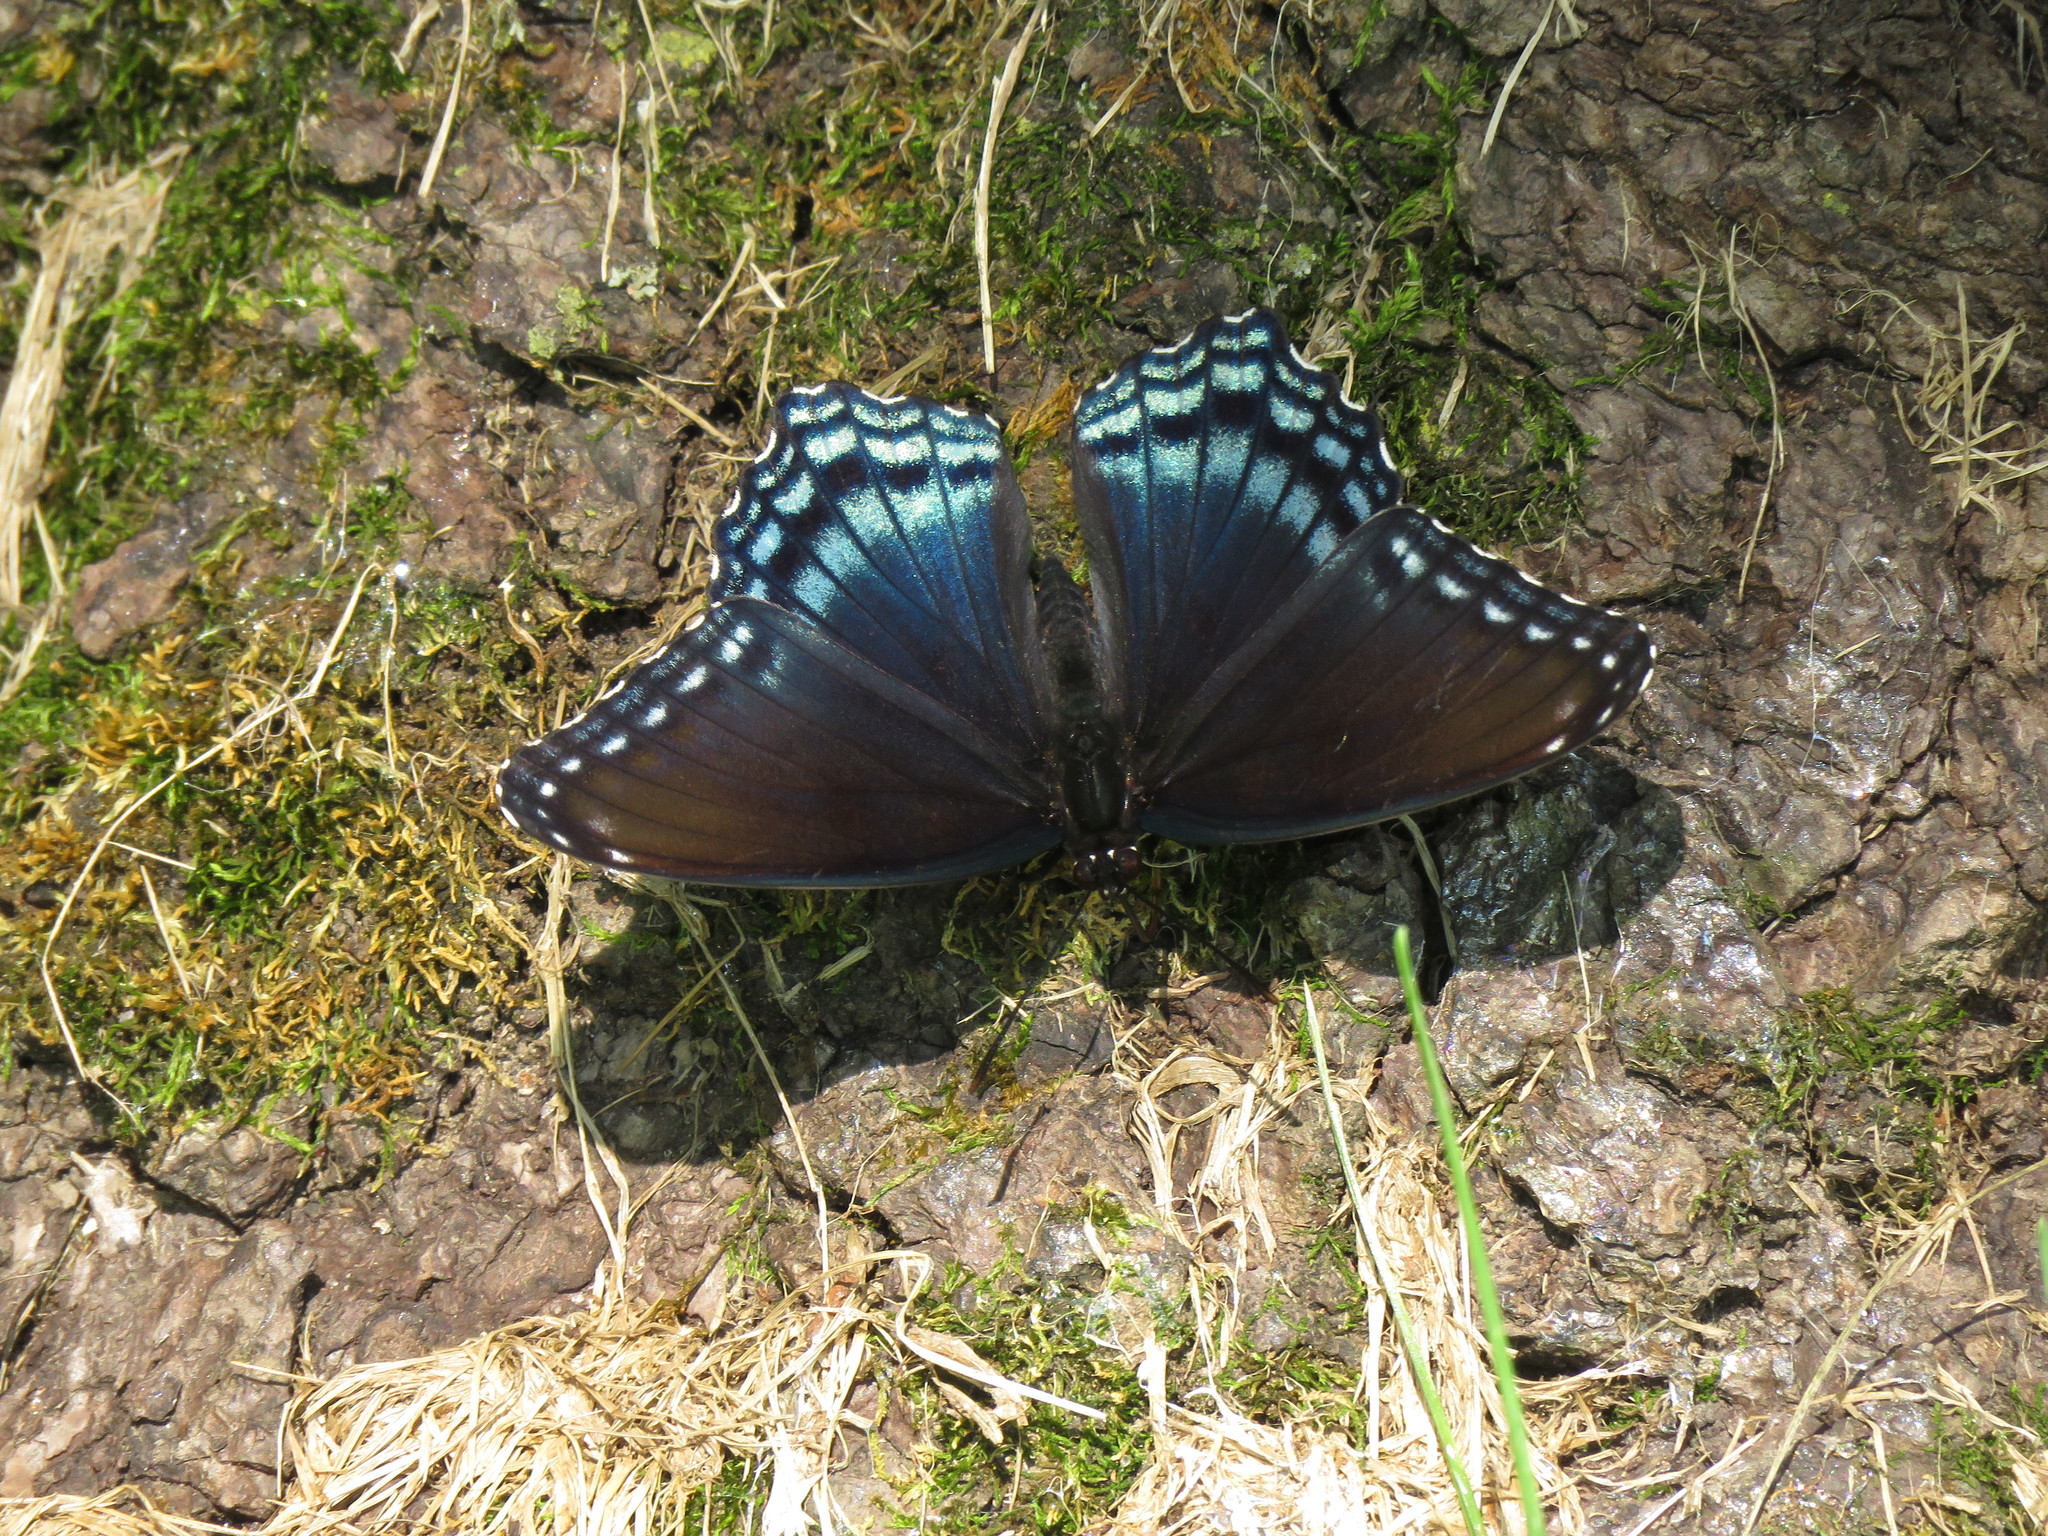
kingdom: Animalia
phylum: Arthropoda
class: Insecta
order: Lepidoptera
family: Nymphalidae
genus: Limenitis
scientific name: Limenitis astyanax
